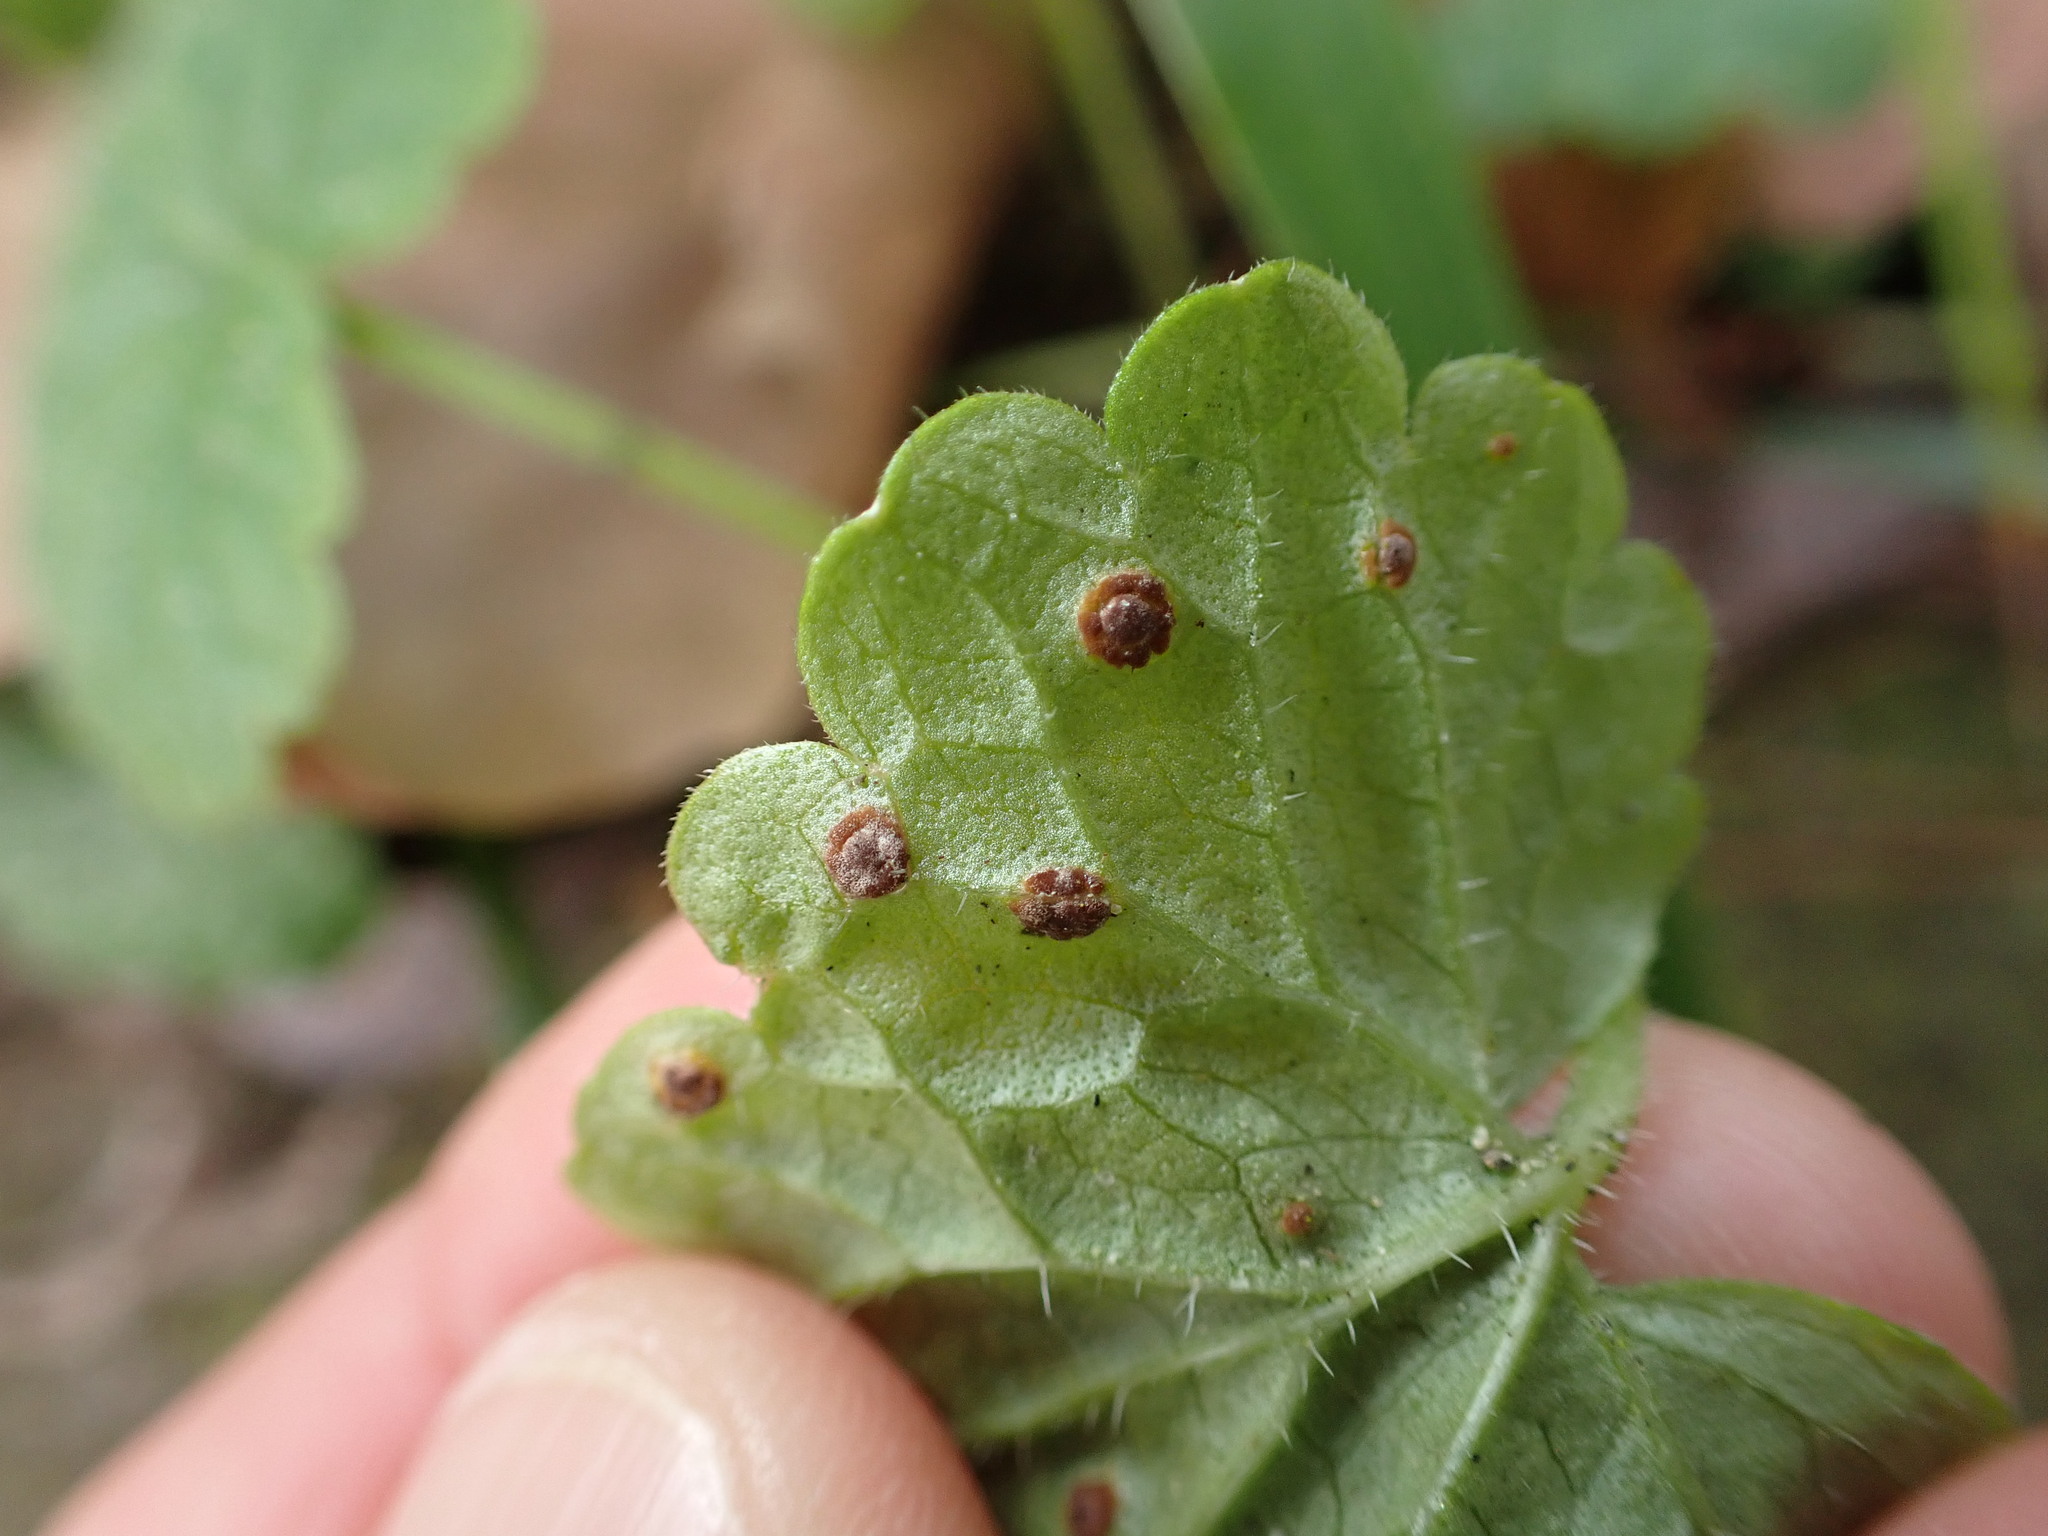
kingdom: Fungi
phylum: Basidiomycota
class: Pucciniomycetes
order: Pucciniales
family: Pucciniaceae
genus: Puccinia
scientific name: Puccinia glechomatis
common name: Ground ivy rust
